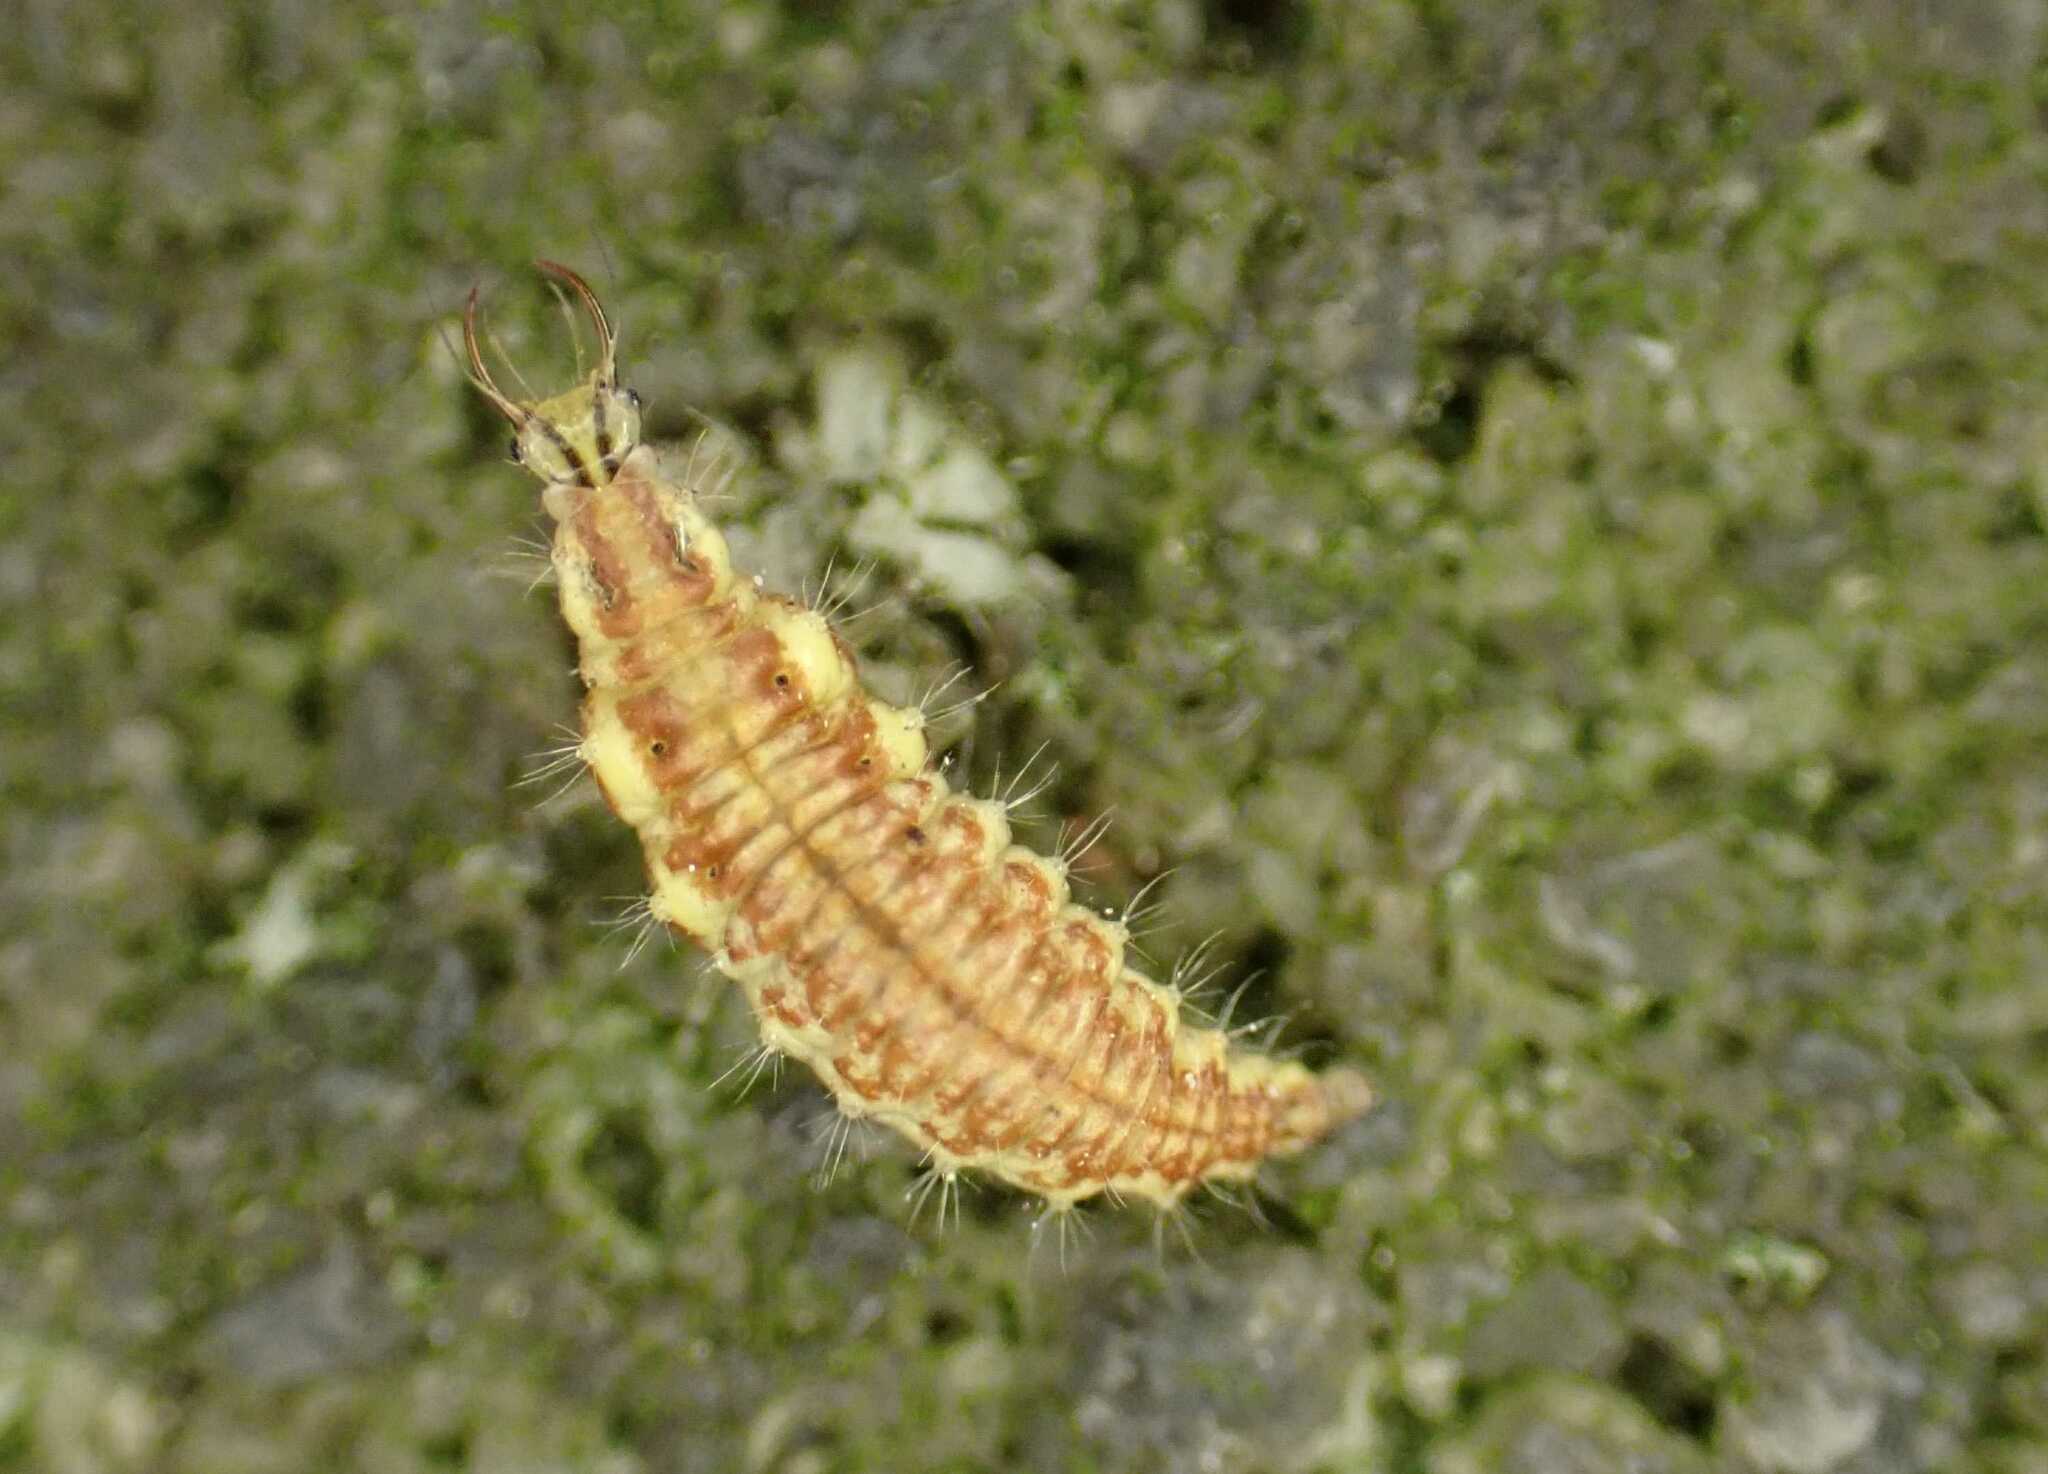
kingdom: Animalia
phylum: Arthropoda
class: Insecta
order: Neuroptera
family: Chrysopidae
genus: Chrysoperla
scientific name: Chrysoperla
